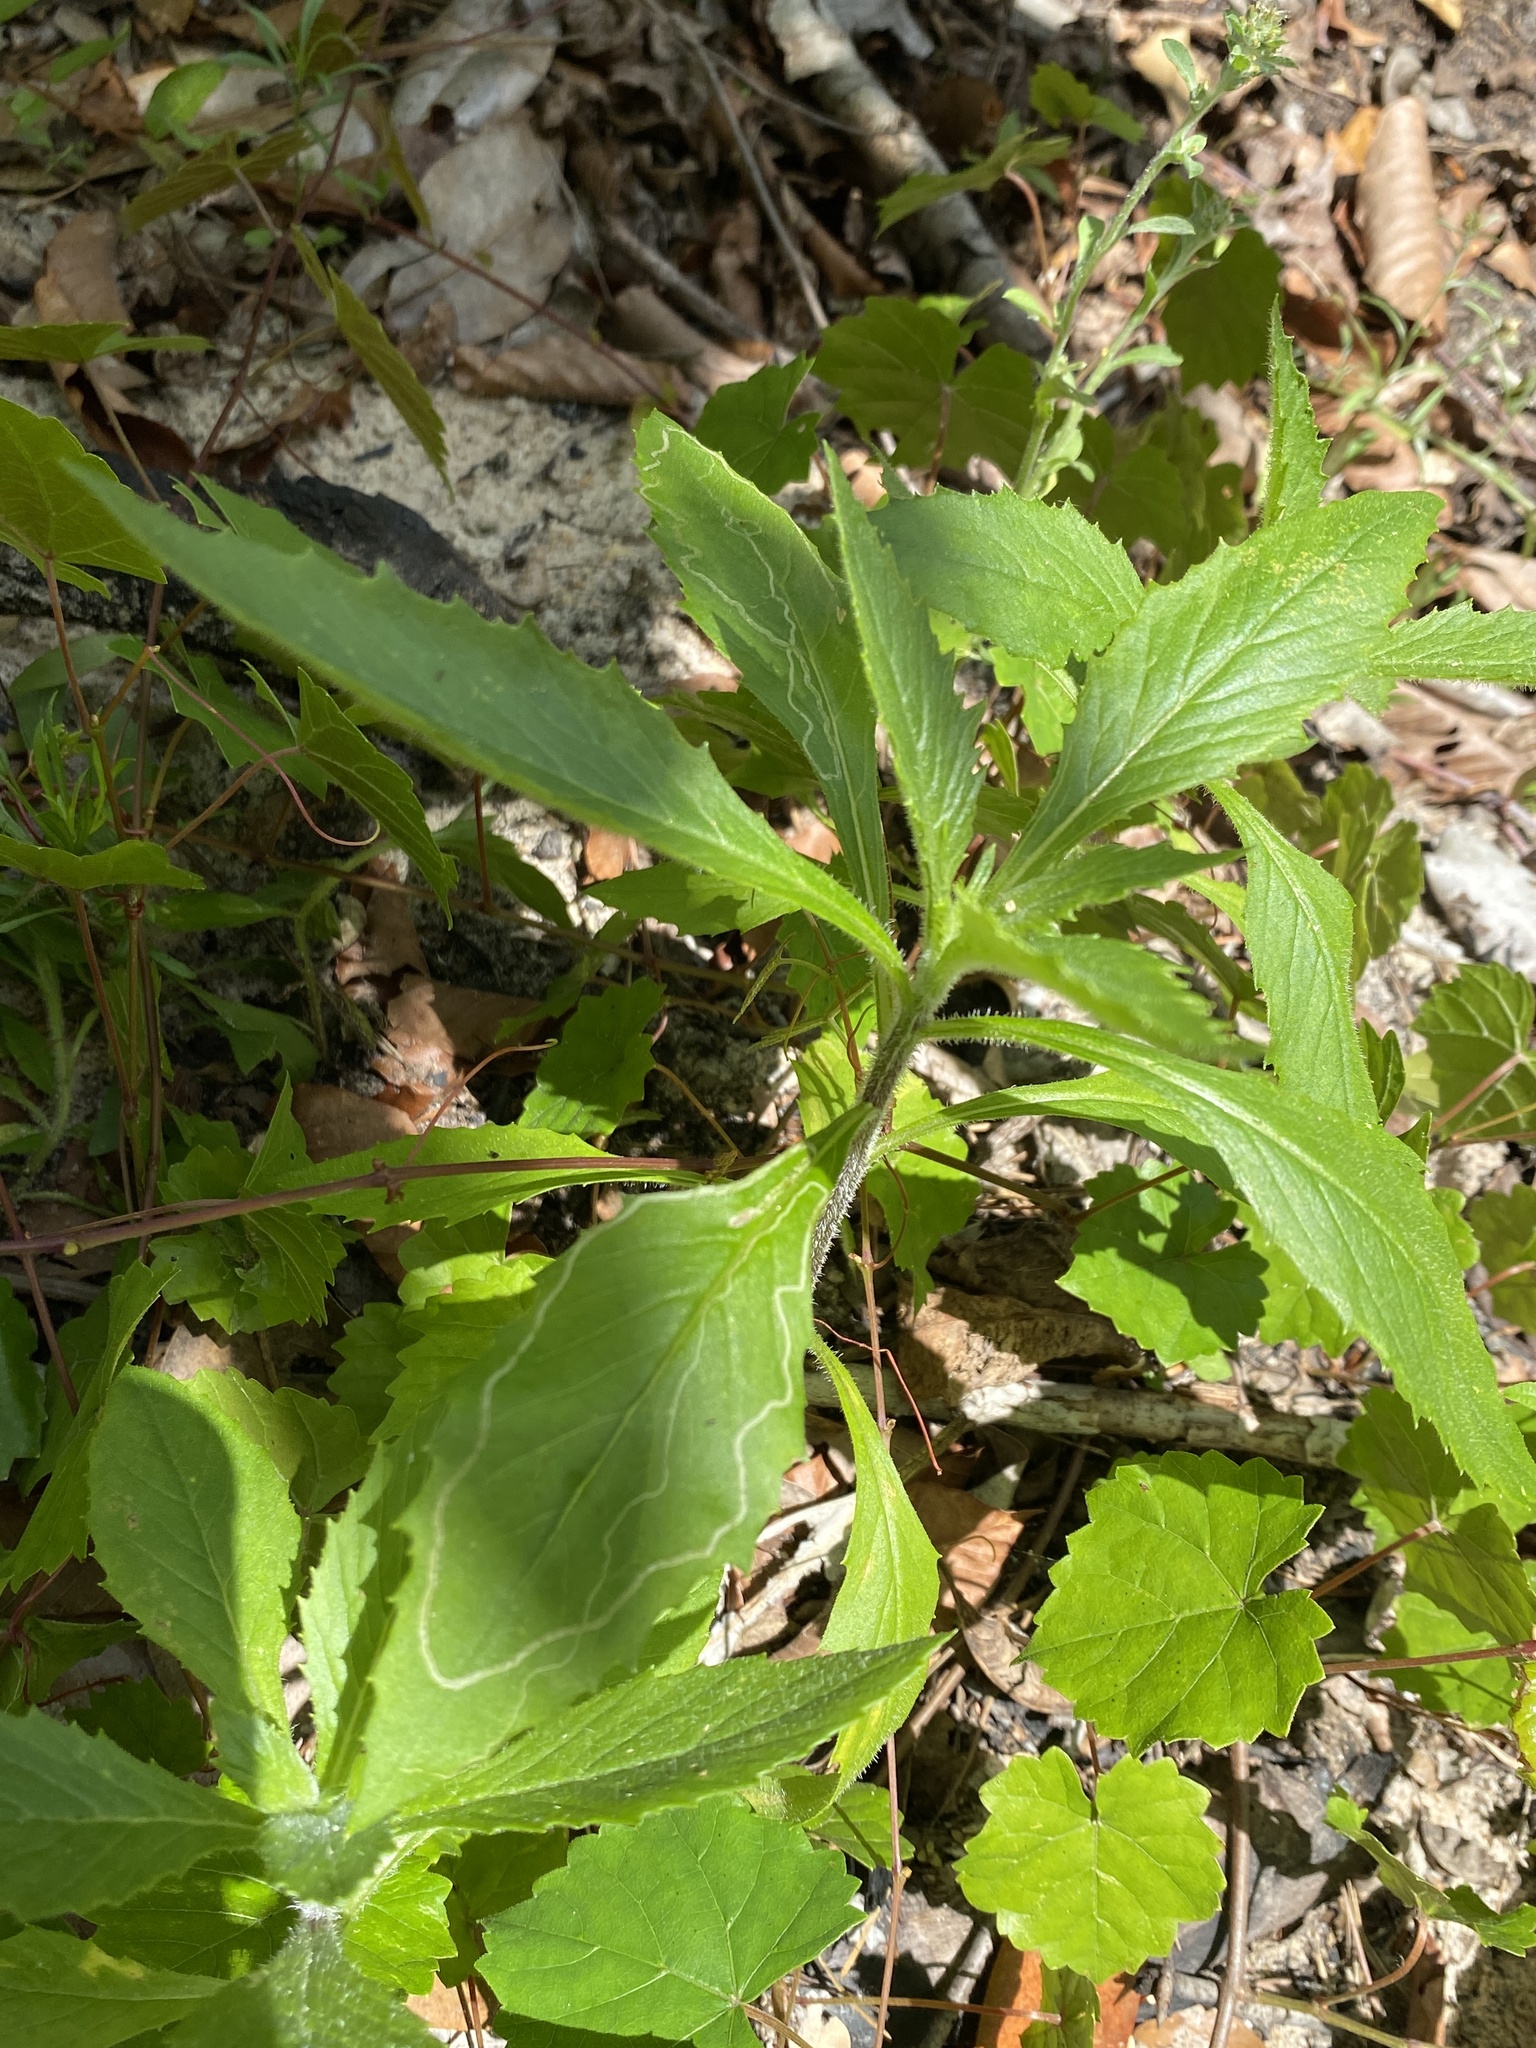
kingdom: Plantae
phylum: Tracheophyta
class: Magnoliopsida
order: Asterales
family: Asteraceae
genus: Erechtites
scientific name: Erechtites hieraciifolius
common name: American burnweed
